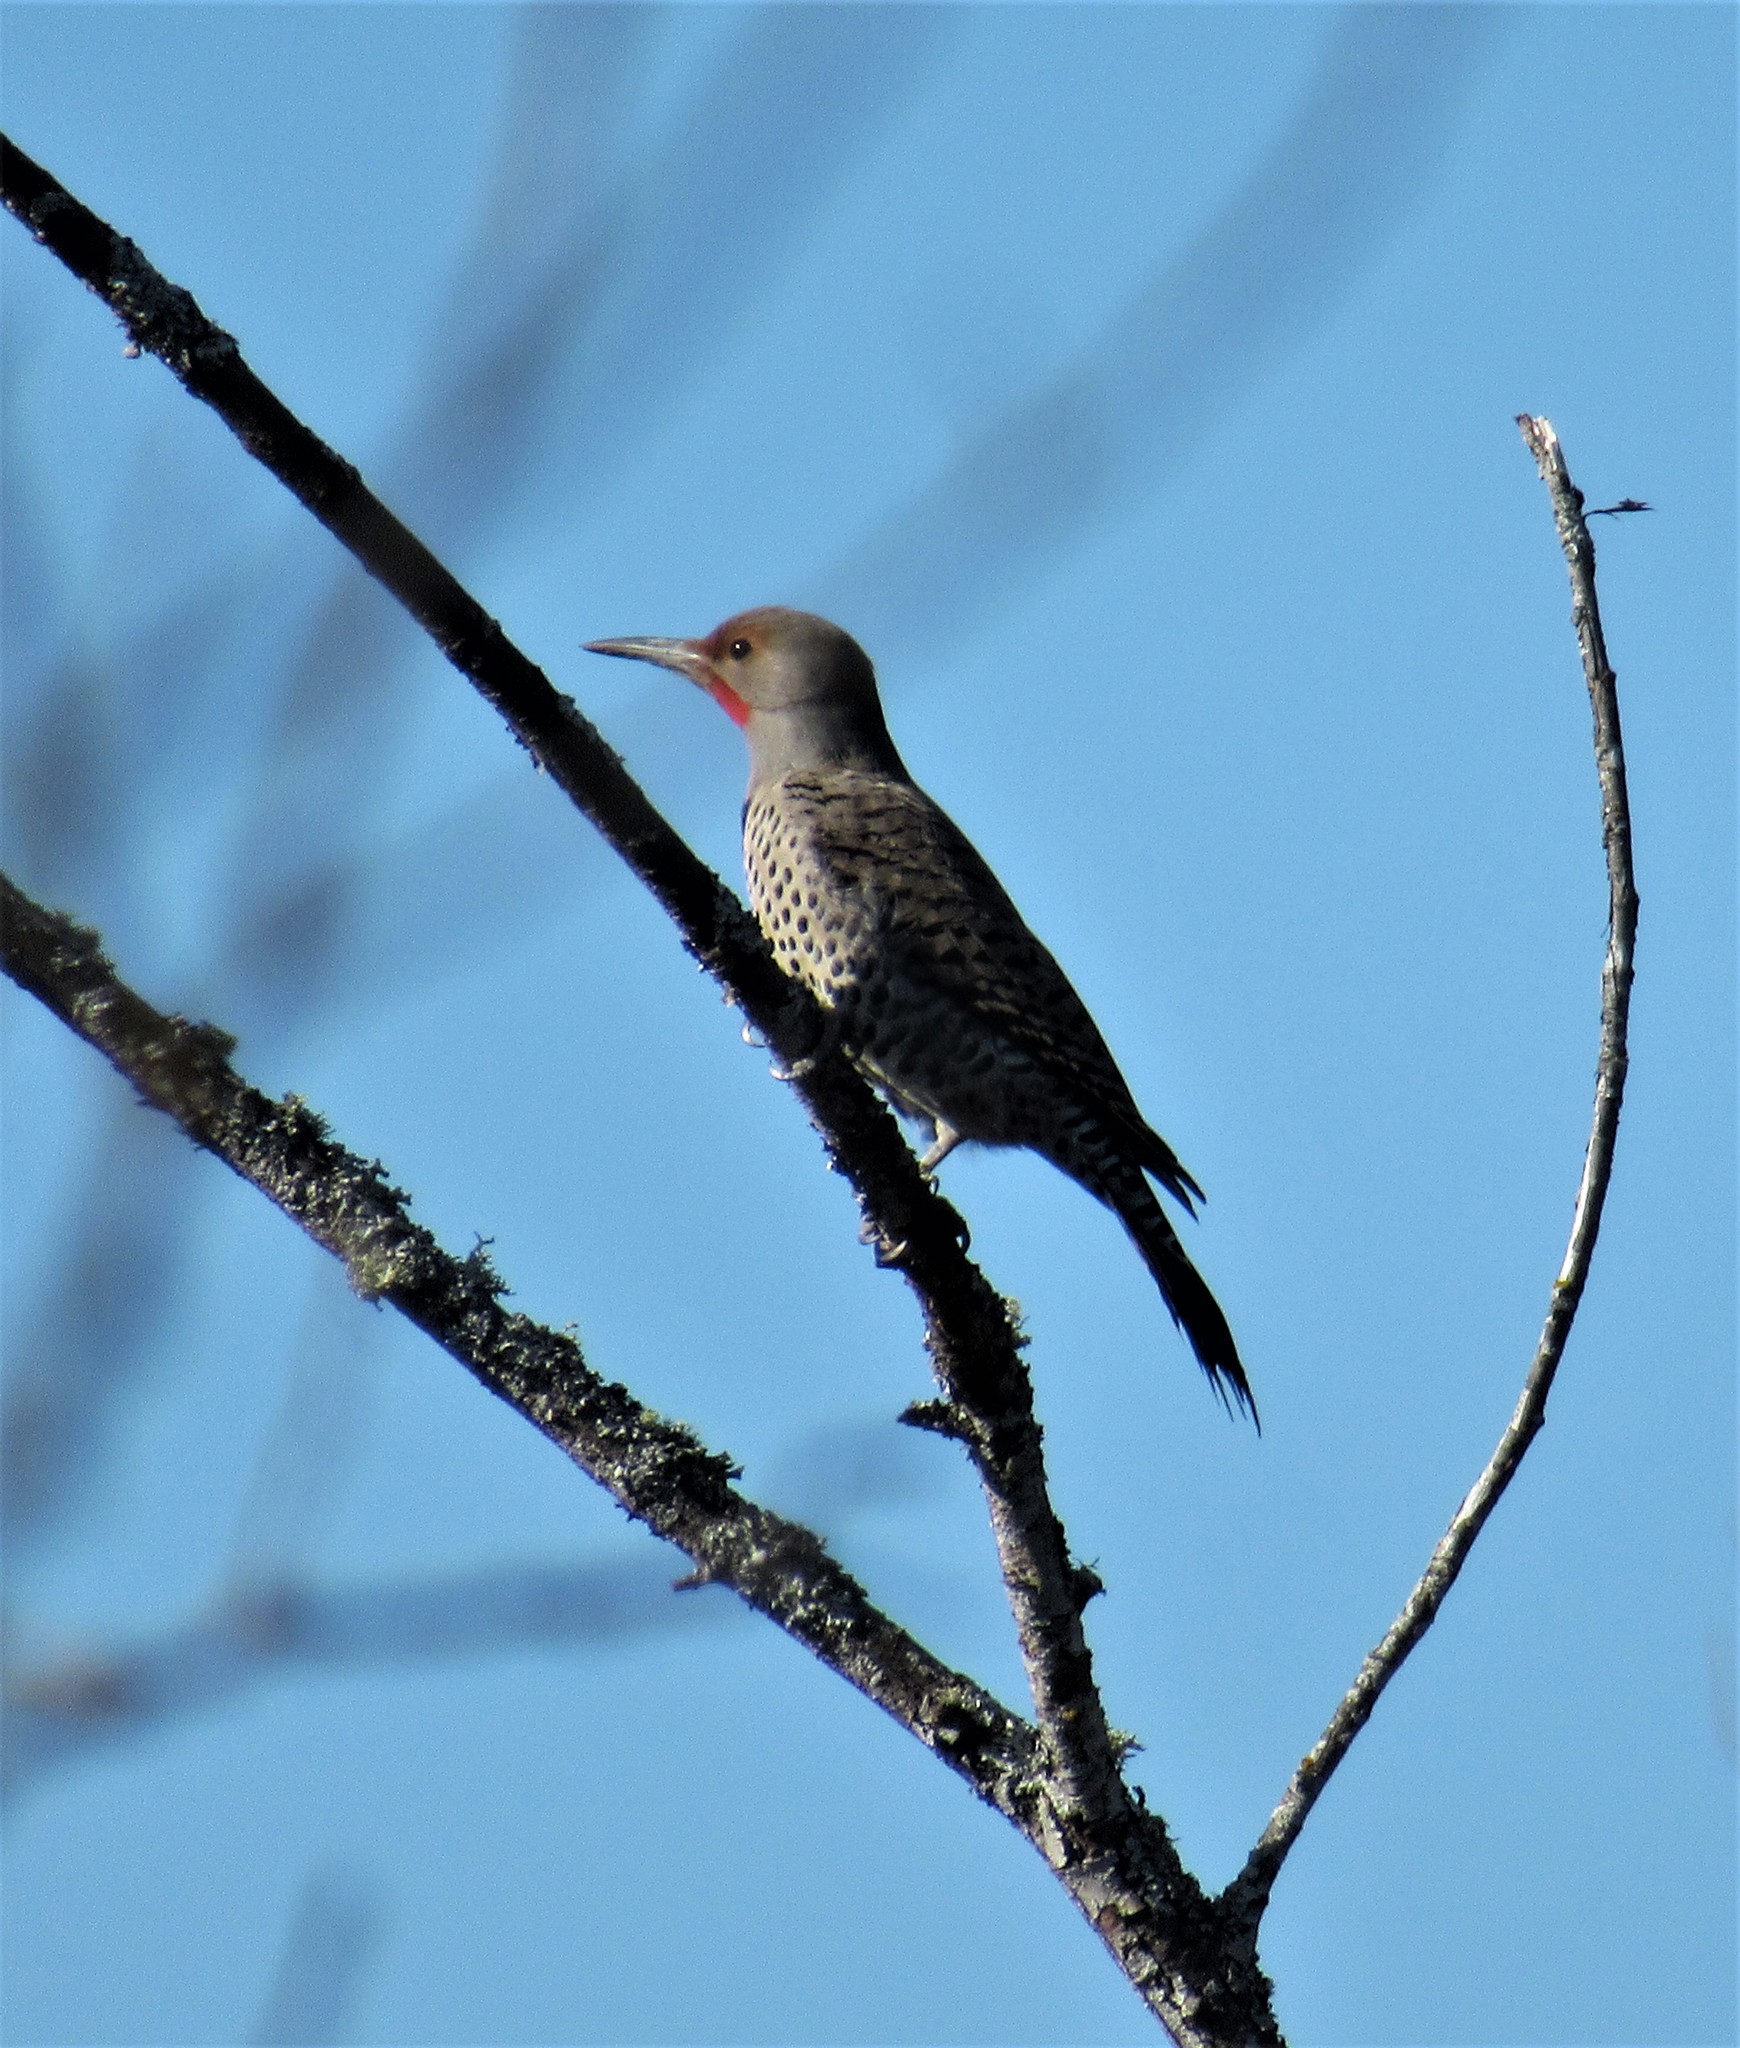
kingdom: Animalia
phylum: Chordata
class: Aves
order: Piciformes
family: Picidae
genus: Colaptes
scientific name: Colaptes auratus
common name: Northern flicker
